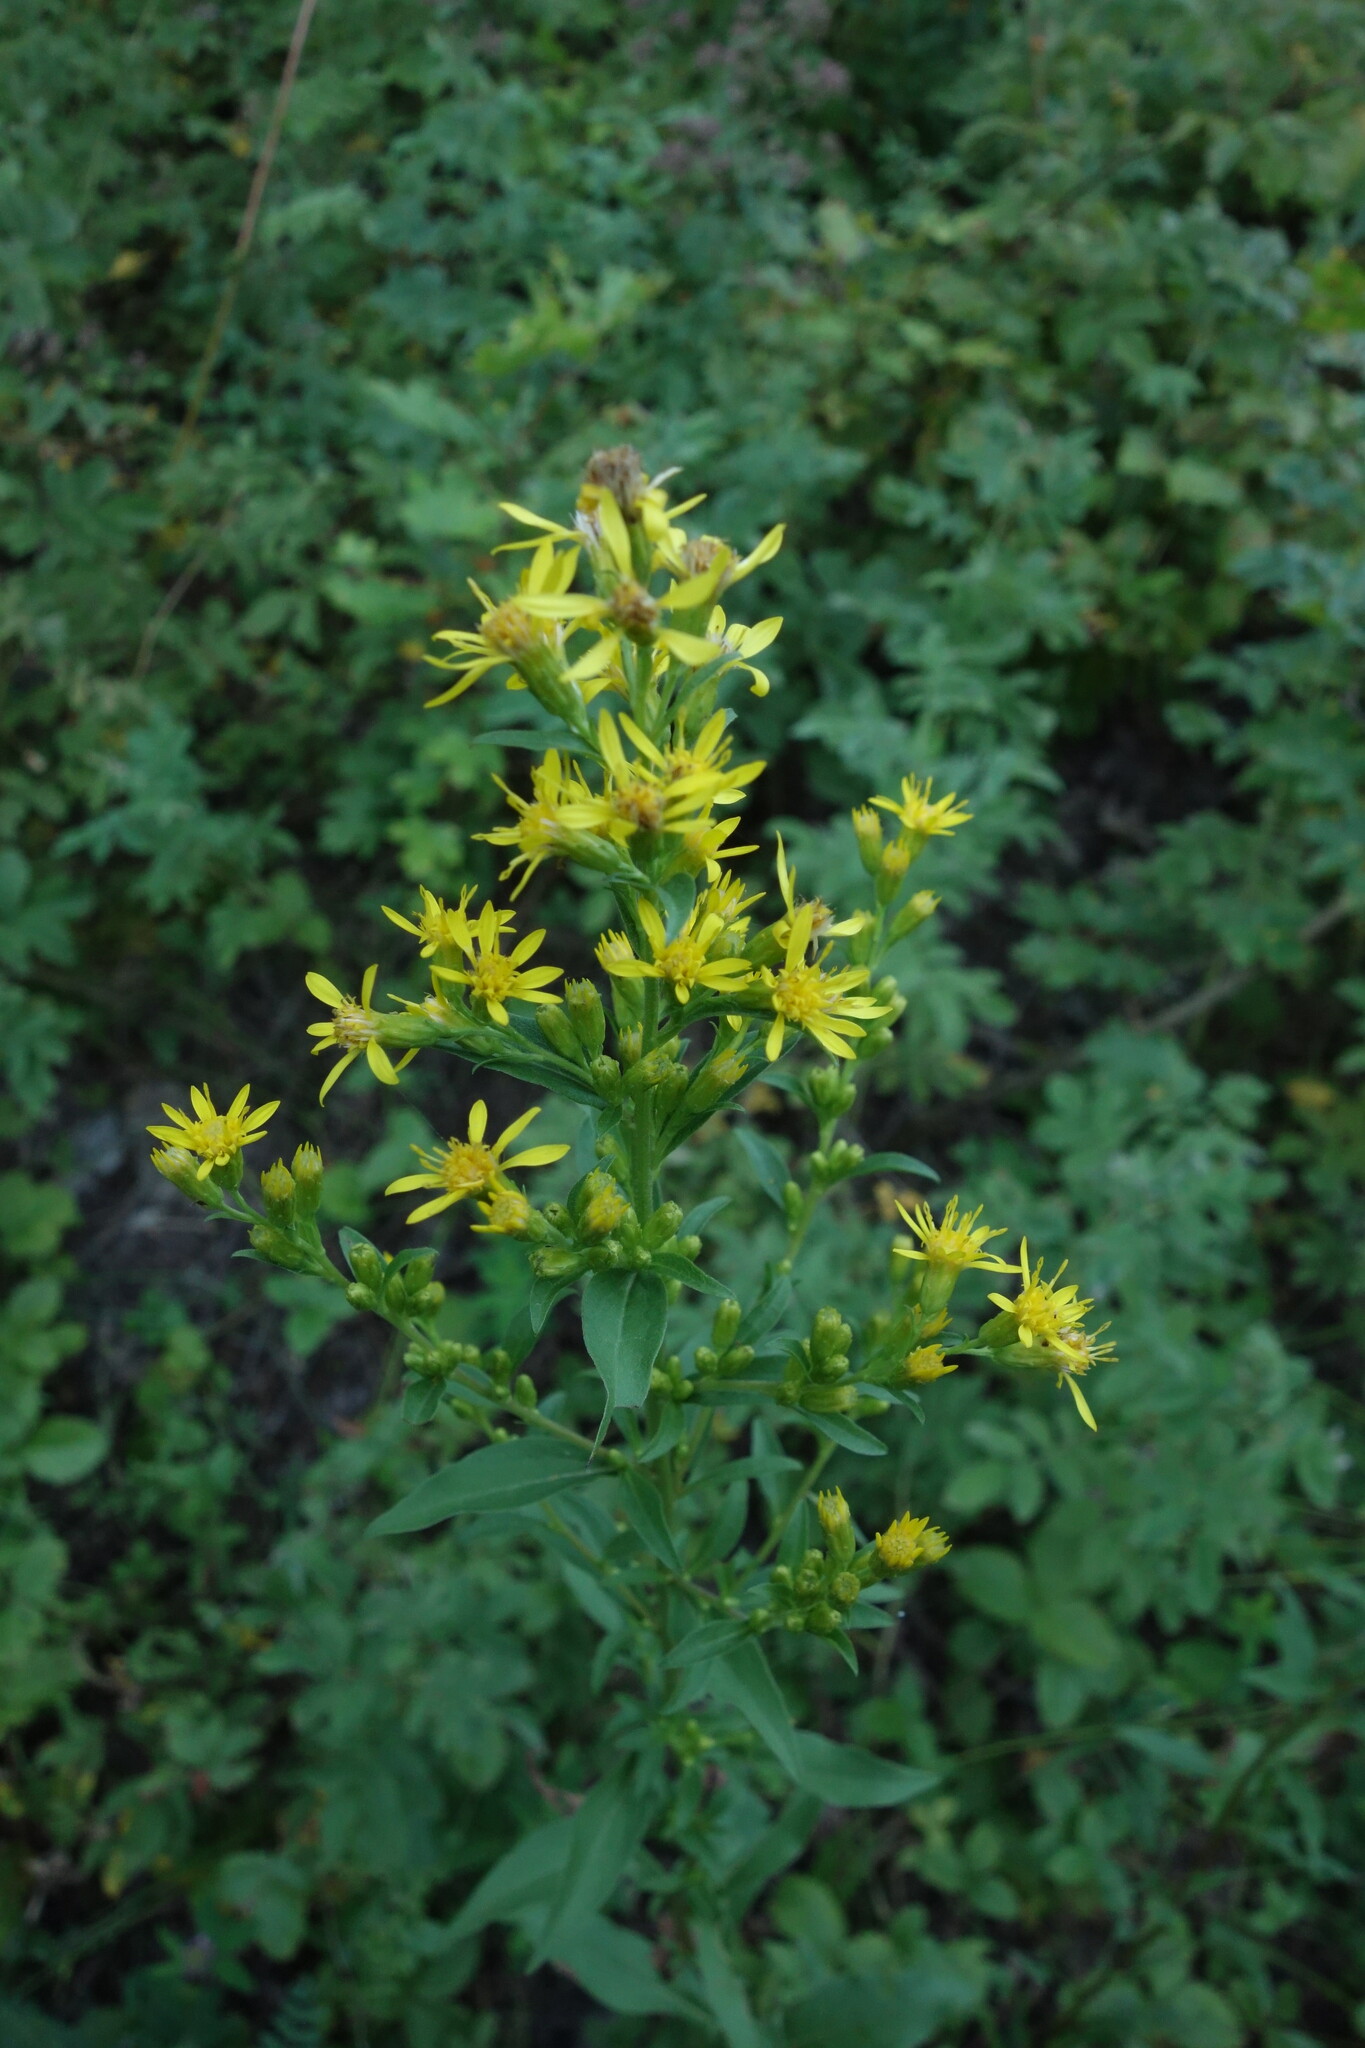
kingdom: Plantae
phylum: Tracheophyta
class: Magnoliopsida
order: Asterales
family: Asteraceae
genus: Solidago
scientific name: Solidago virgaurea
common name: Goldenrod
